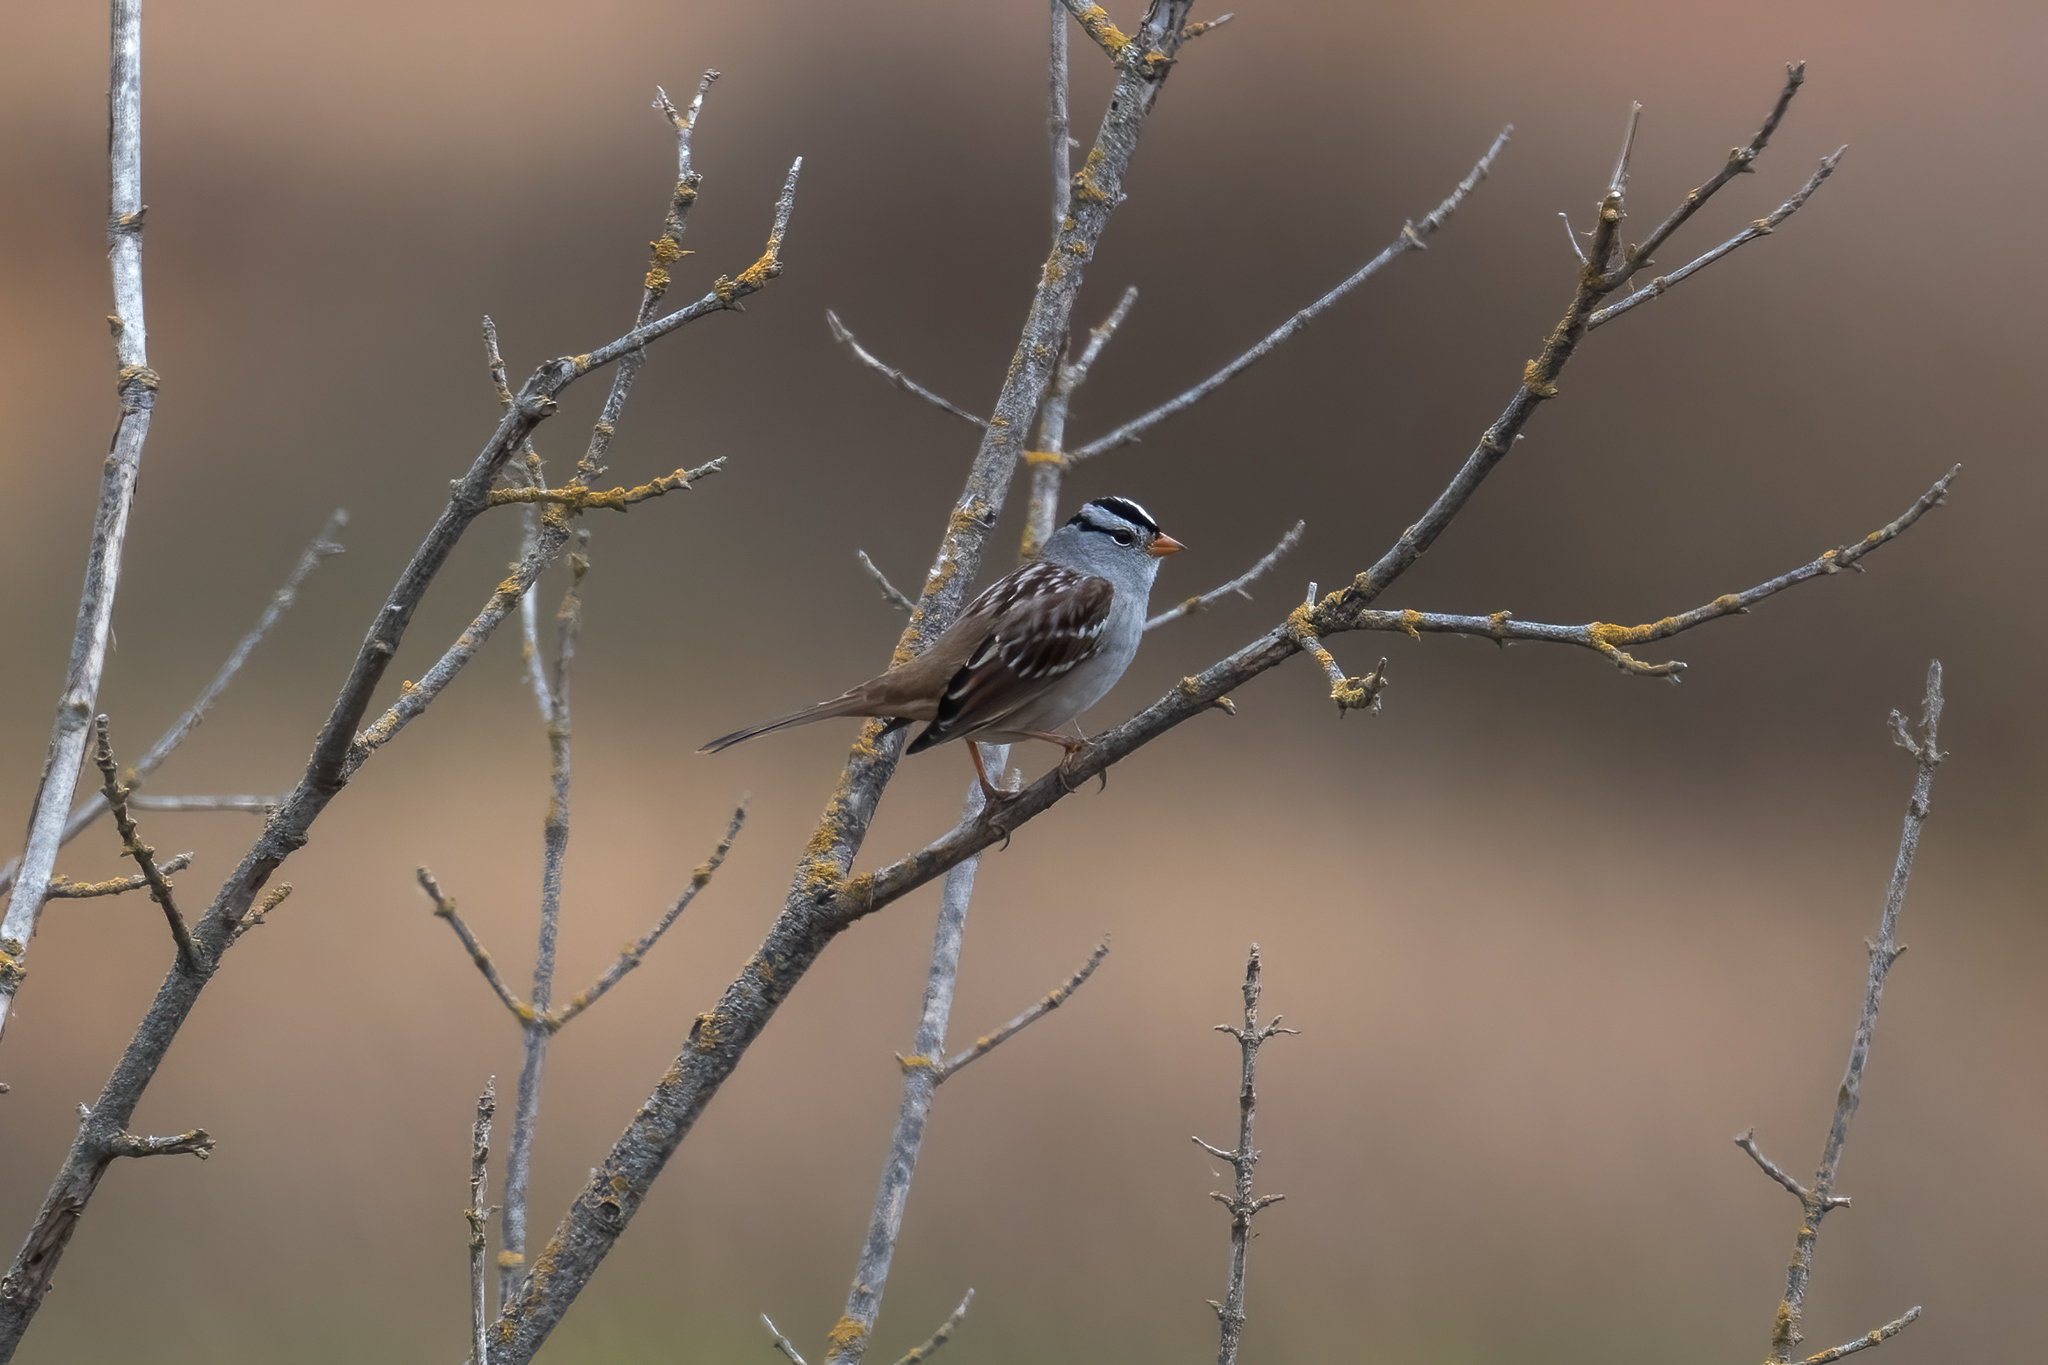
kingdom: Animalia
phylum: Chordata
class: Aves
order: Passeriformes
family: Passerellidae
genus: Zonotrichia
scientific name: Zonotrichia leucophrys
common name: White-crowned sparrow
